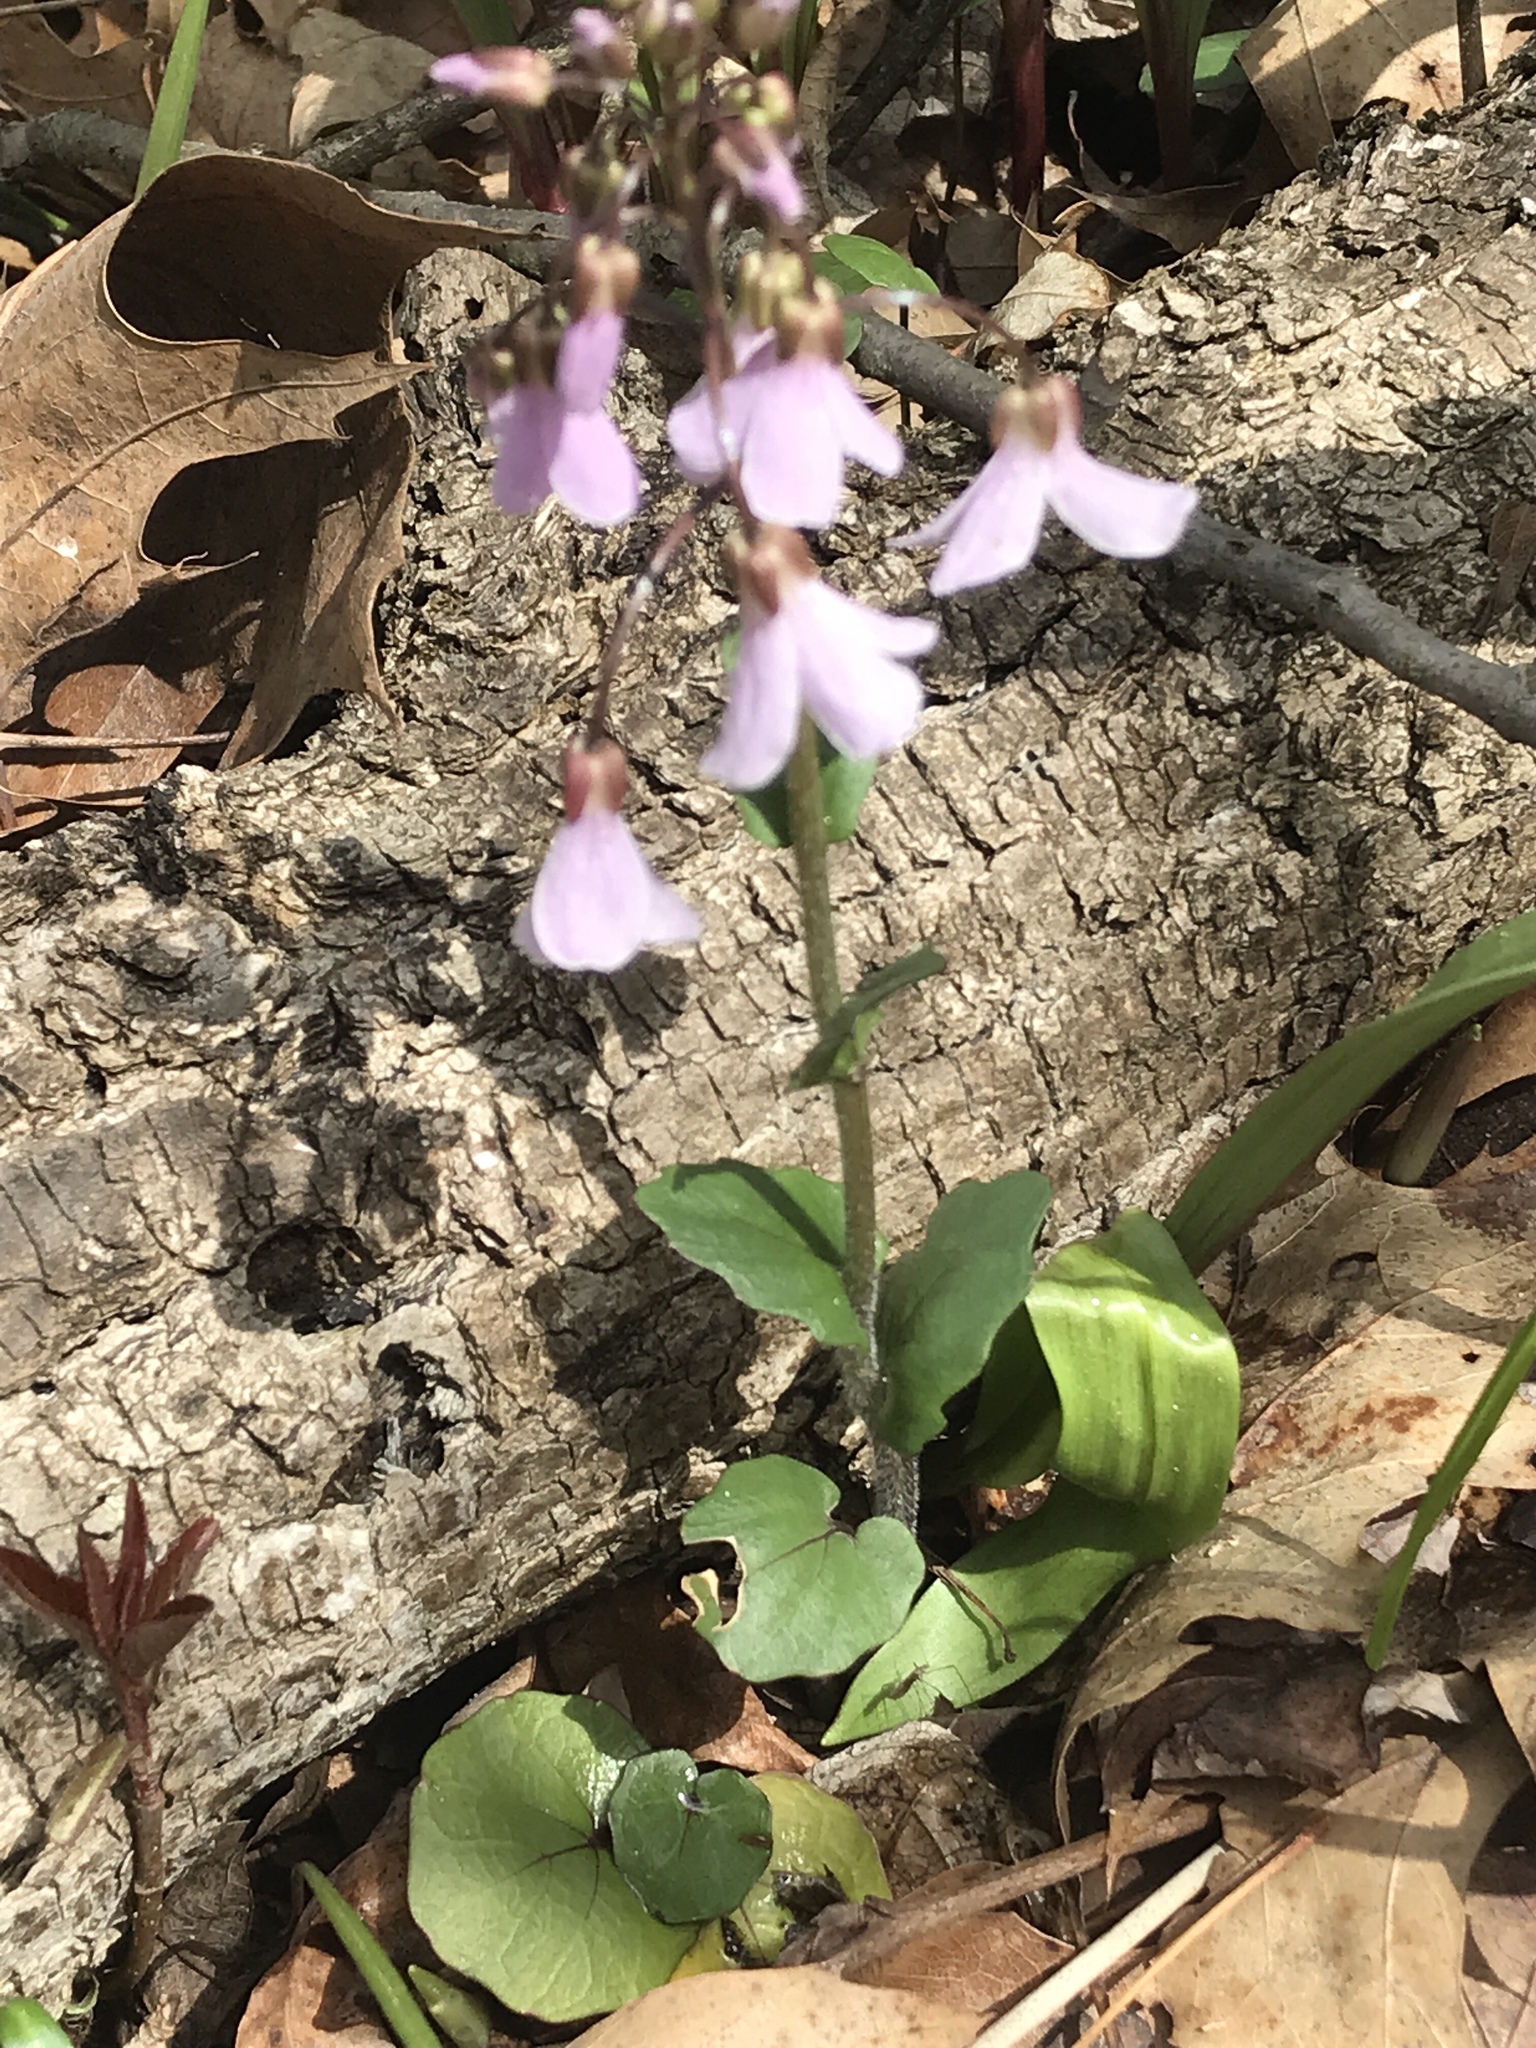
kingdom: Plantae
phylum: Tracheophyta
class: Magnoliopsida
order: Brassicales
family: Brassicaceae
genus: Cardamine
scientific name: Cardamine douglassii
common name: Purple cress
